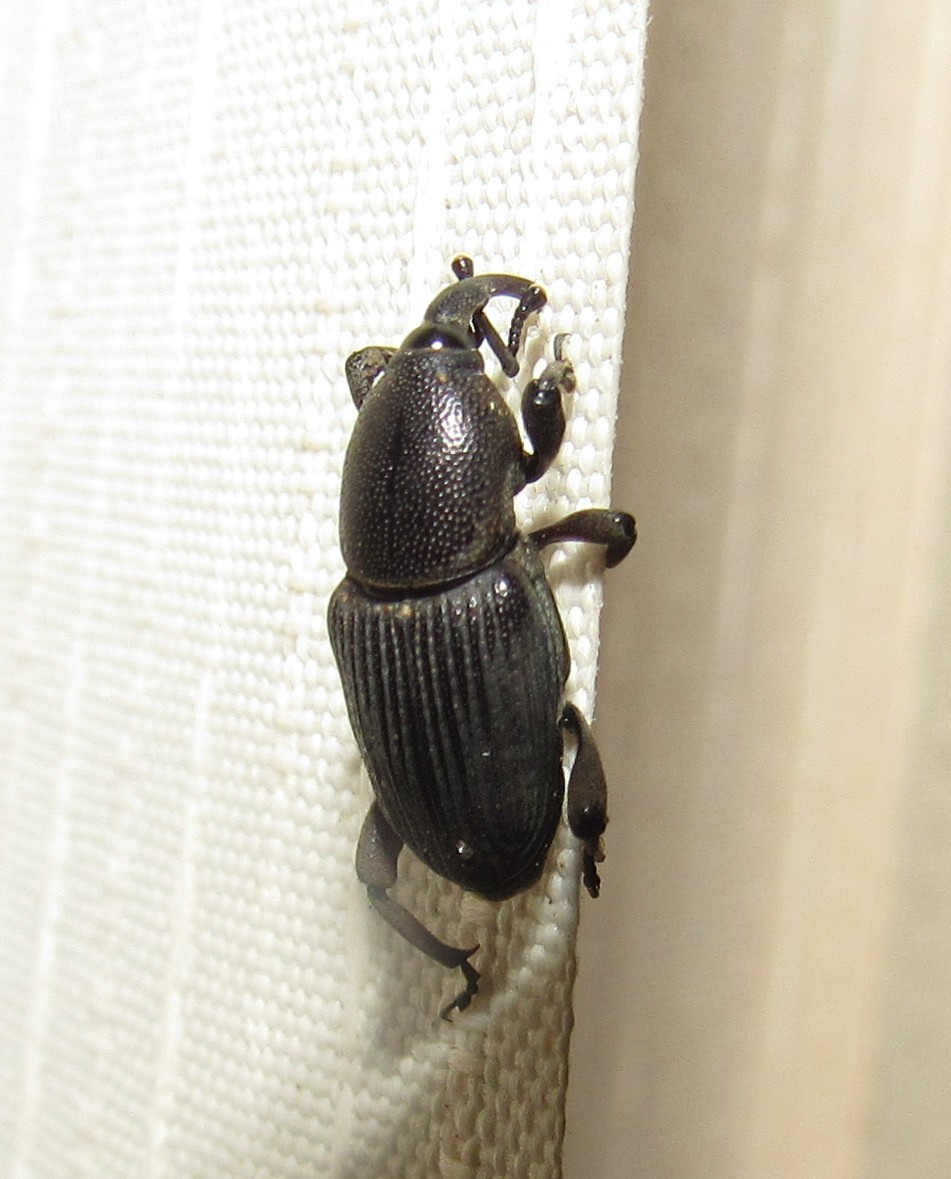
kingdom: Animalia
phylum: Arthropoda
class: Insecta
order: Coleoptera
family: Dryophthoridae
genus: Cosmopolites
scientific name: Cosmopolites sordidus
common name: Palm weevil
